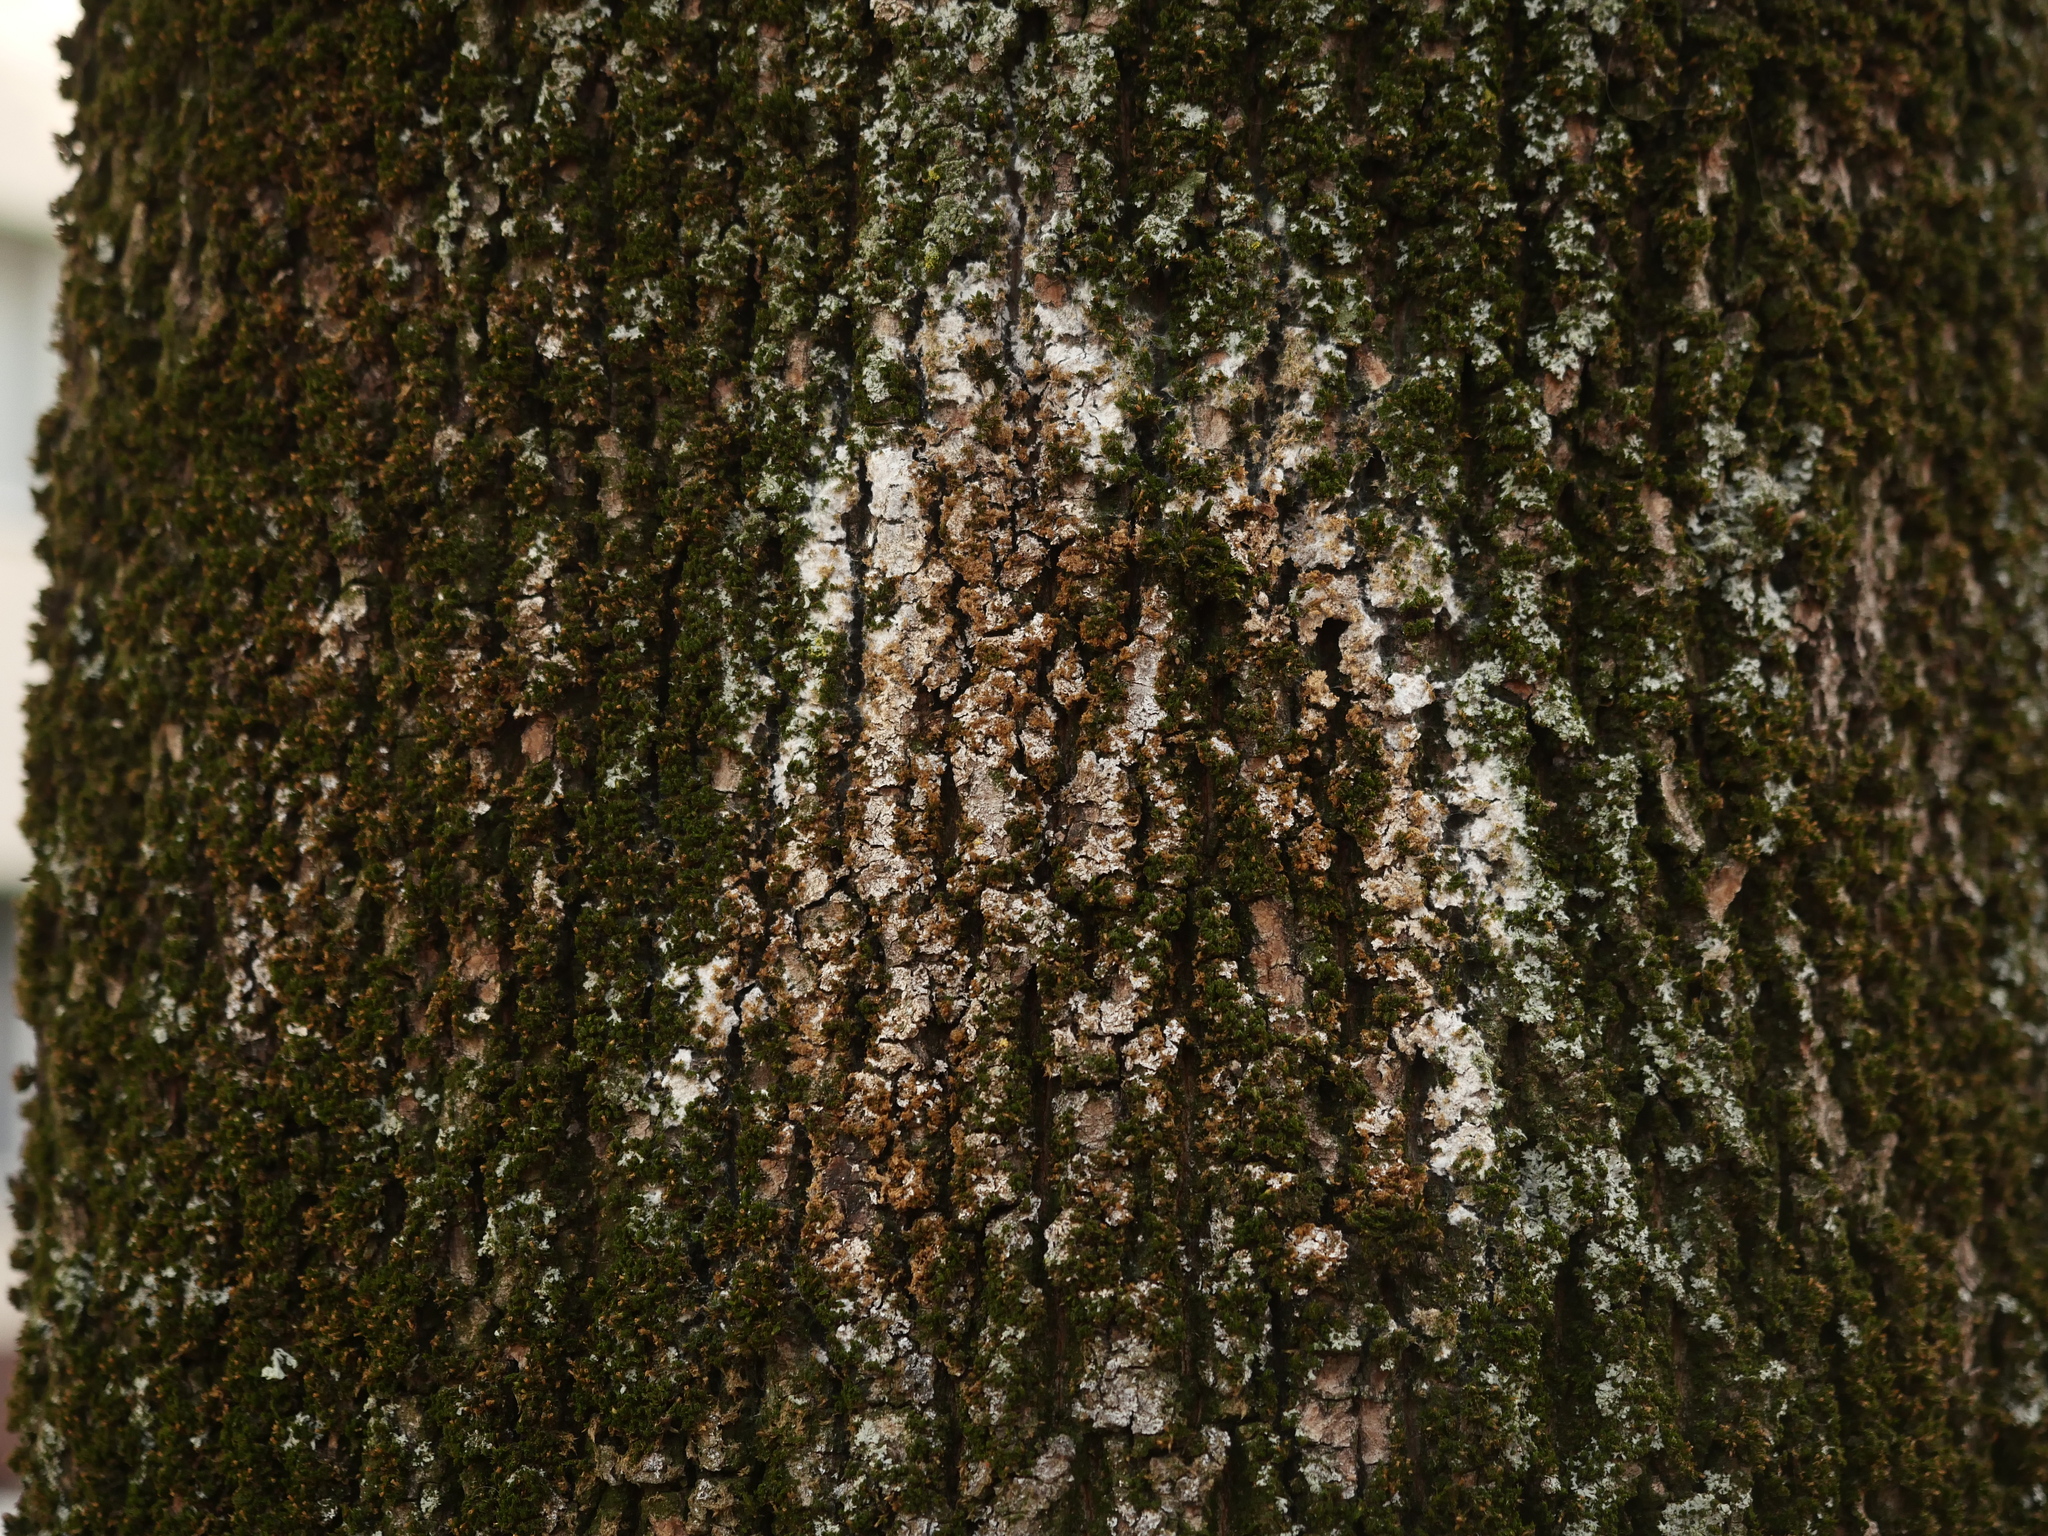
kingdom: Fungi
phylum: Basidiomycota
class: Agaricomycetes
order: Atheliales
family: Atheliaceae
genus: Athelia
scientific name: Athelia arachnoidea
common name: Candelabra duster
